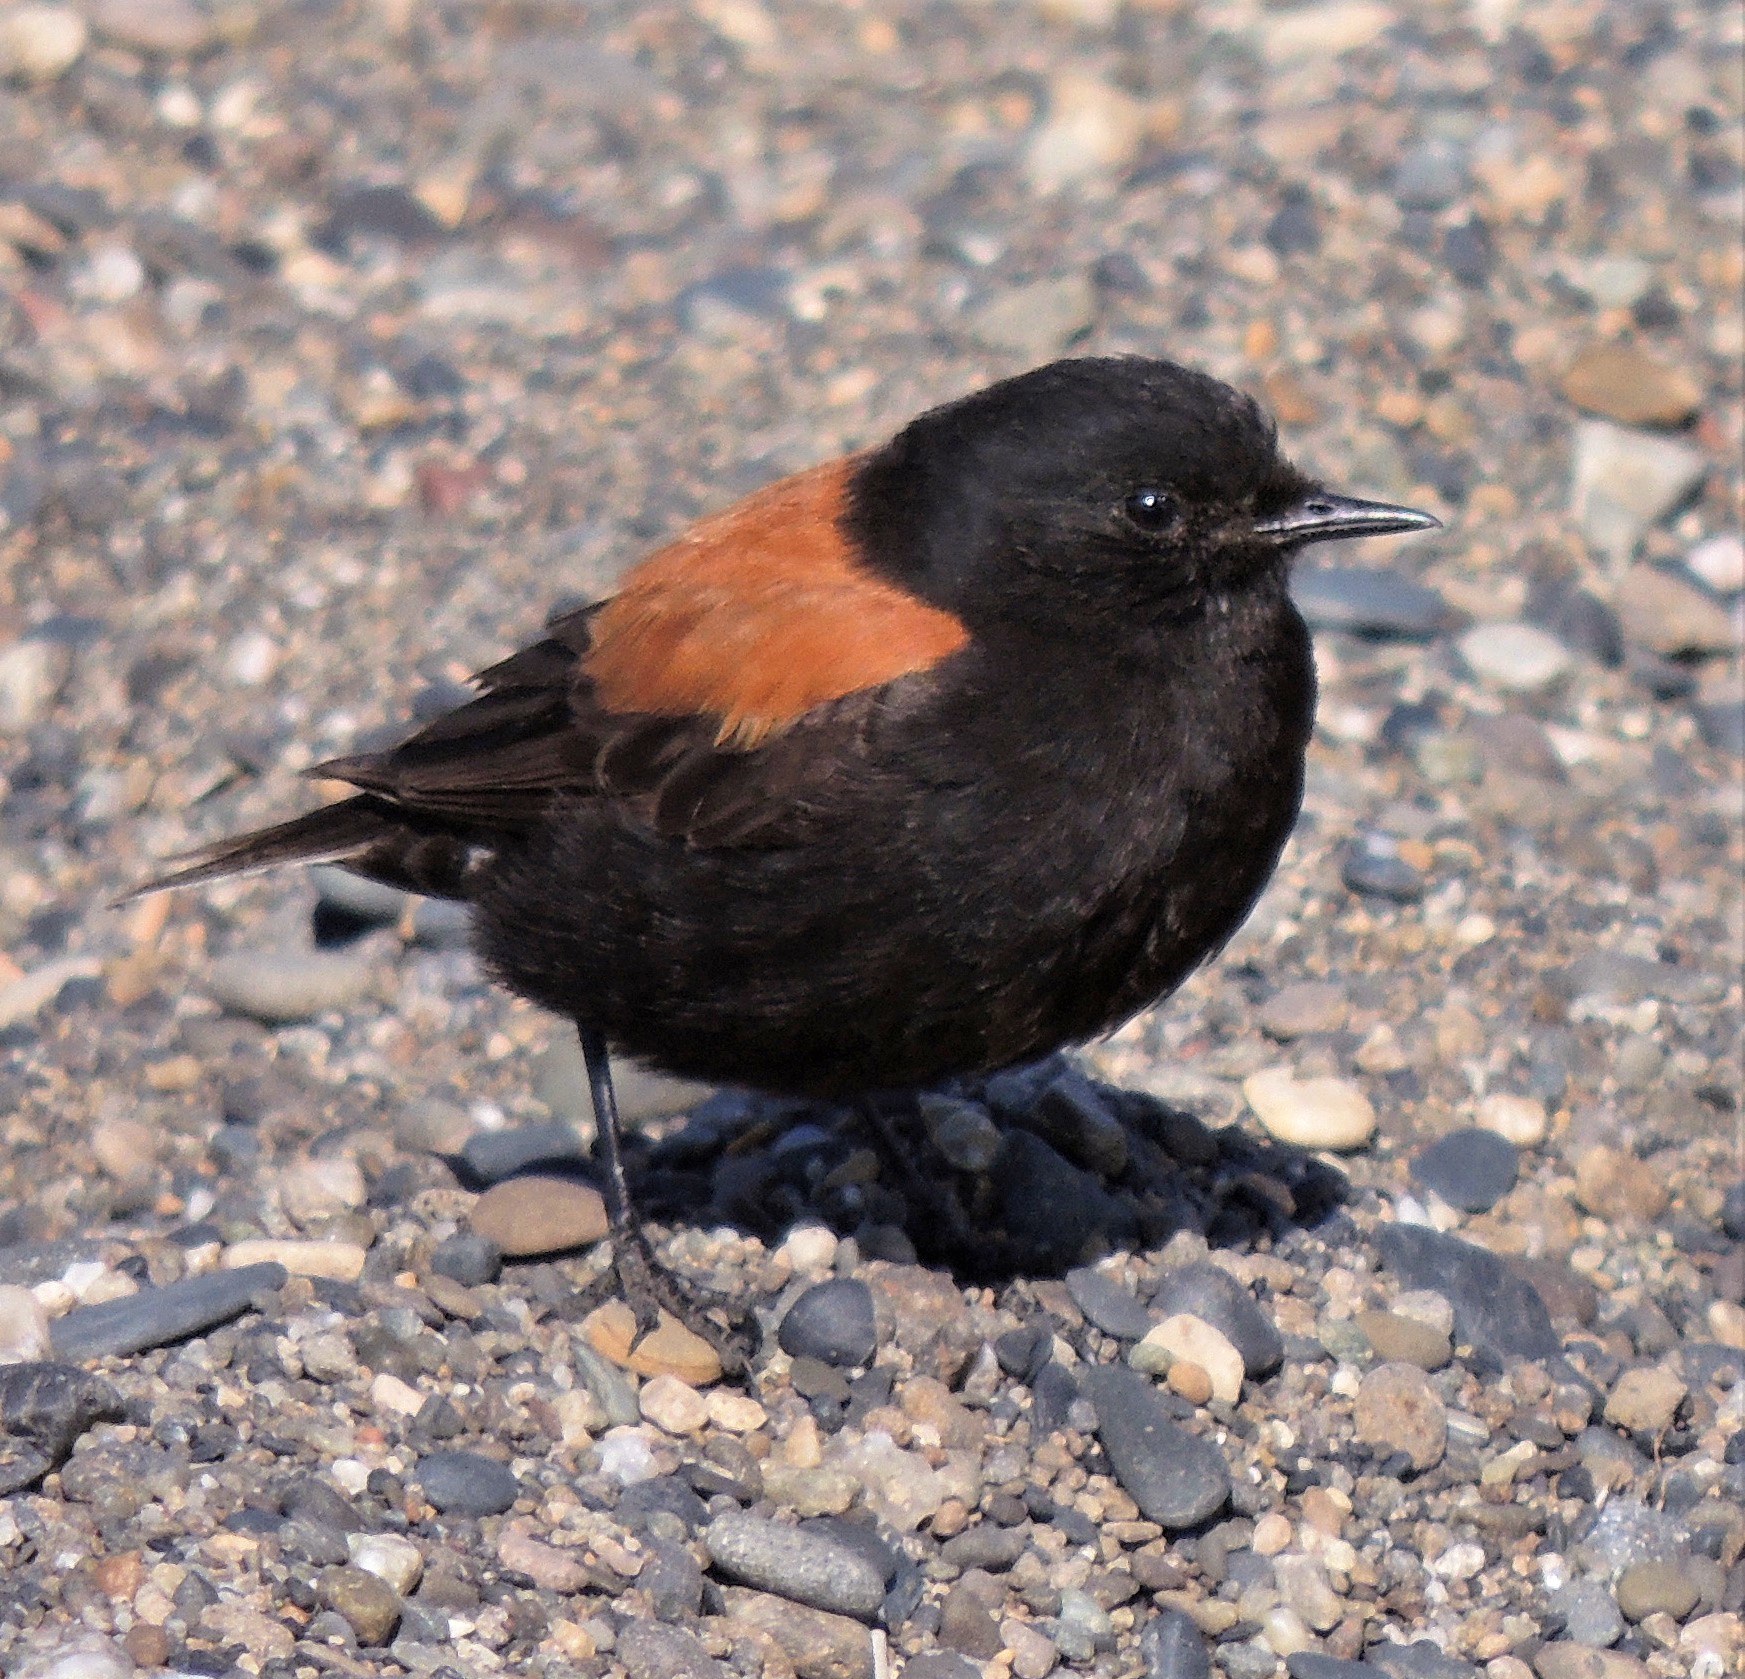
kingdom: Animalia
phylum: Chordata
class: Aves
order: Passeriformes
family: Tyrannidae
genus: Lessonia
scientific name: Lessonia rufa
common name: Austral negrito
